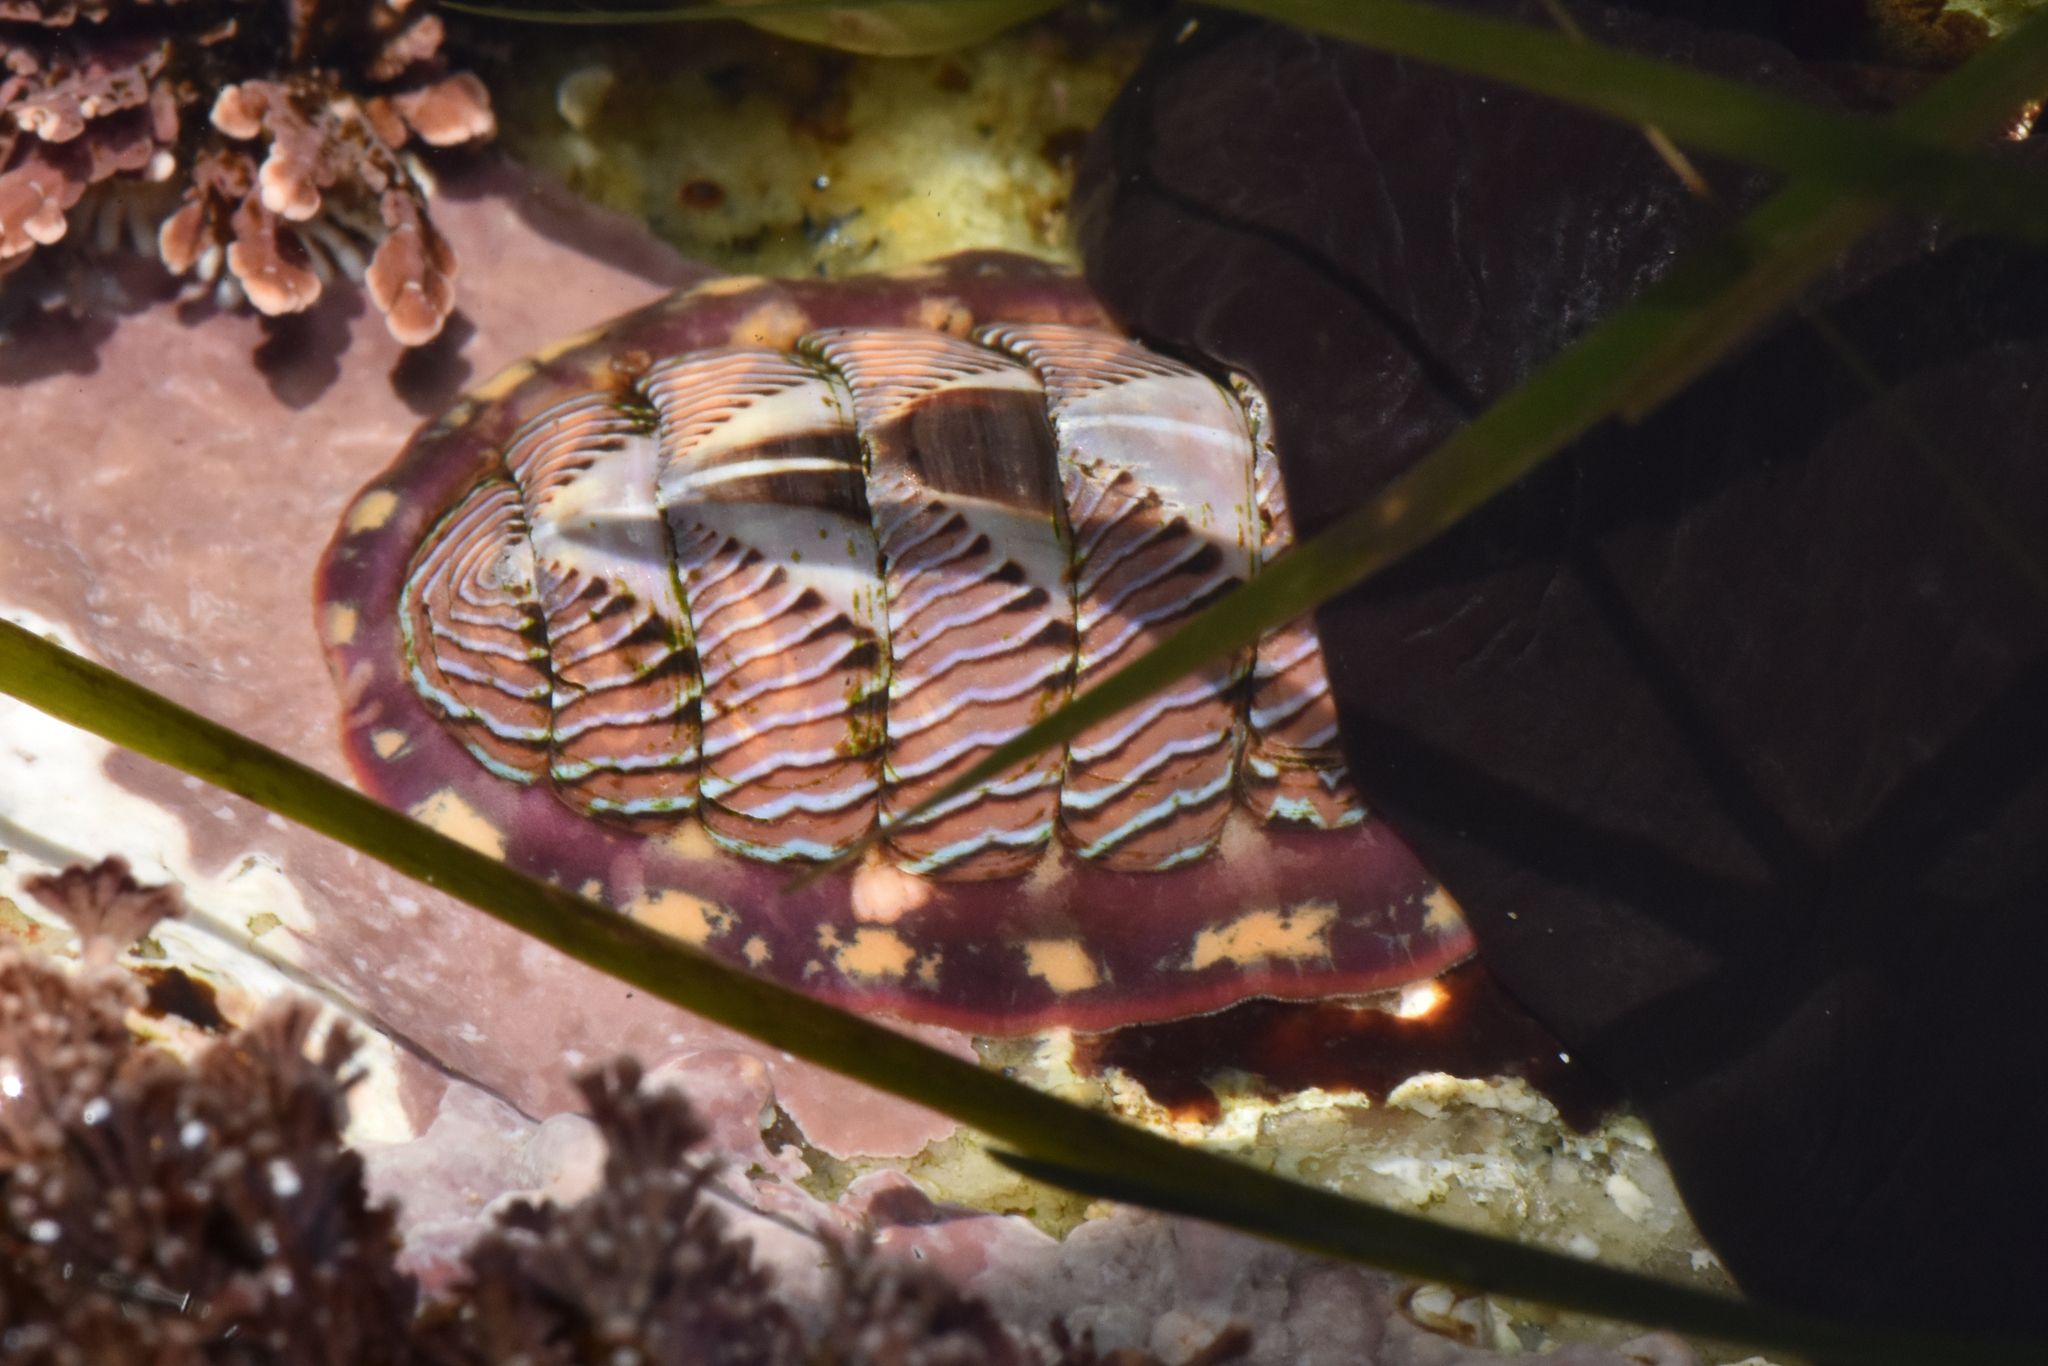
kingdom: Animalia
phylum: Mollusca
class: Polyplacophora
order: Chitonida
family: Tonicellidae
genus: Tonicella
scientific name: Tonicella lineata
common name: Lined chiton
